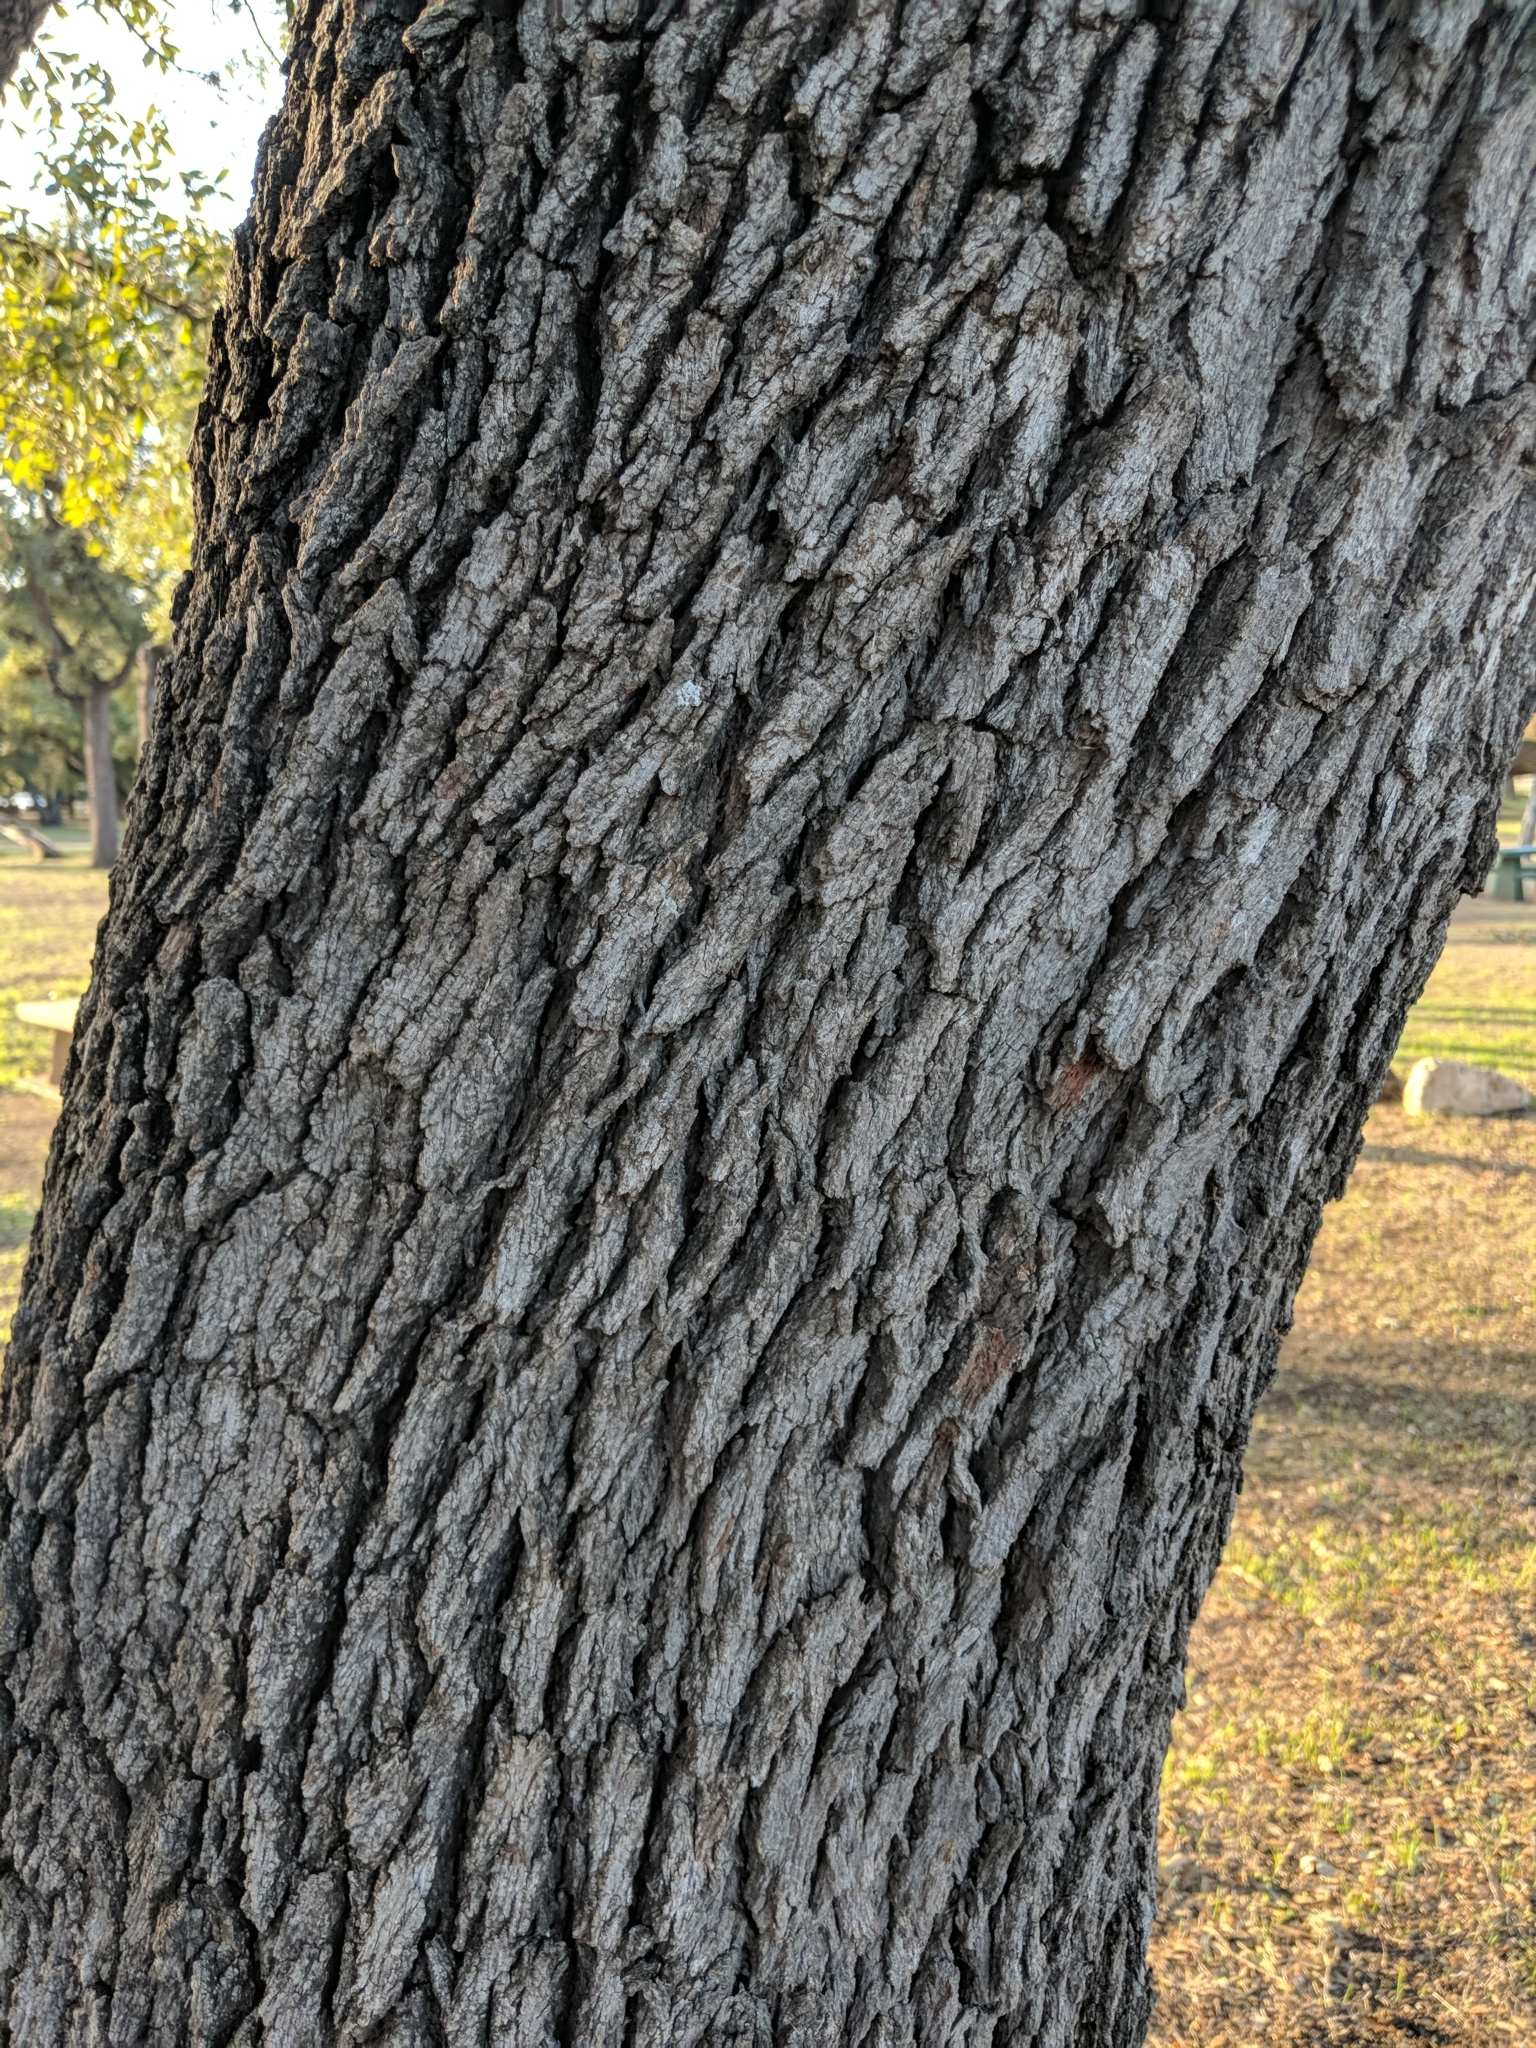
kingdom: Plantae
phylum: Tracheophyta
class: Magnoliopsida
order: Fagales
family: Fagaceae
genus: Quercus
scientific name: Quercus fusiformis
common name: Texas live oak
